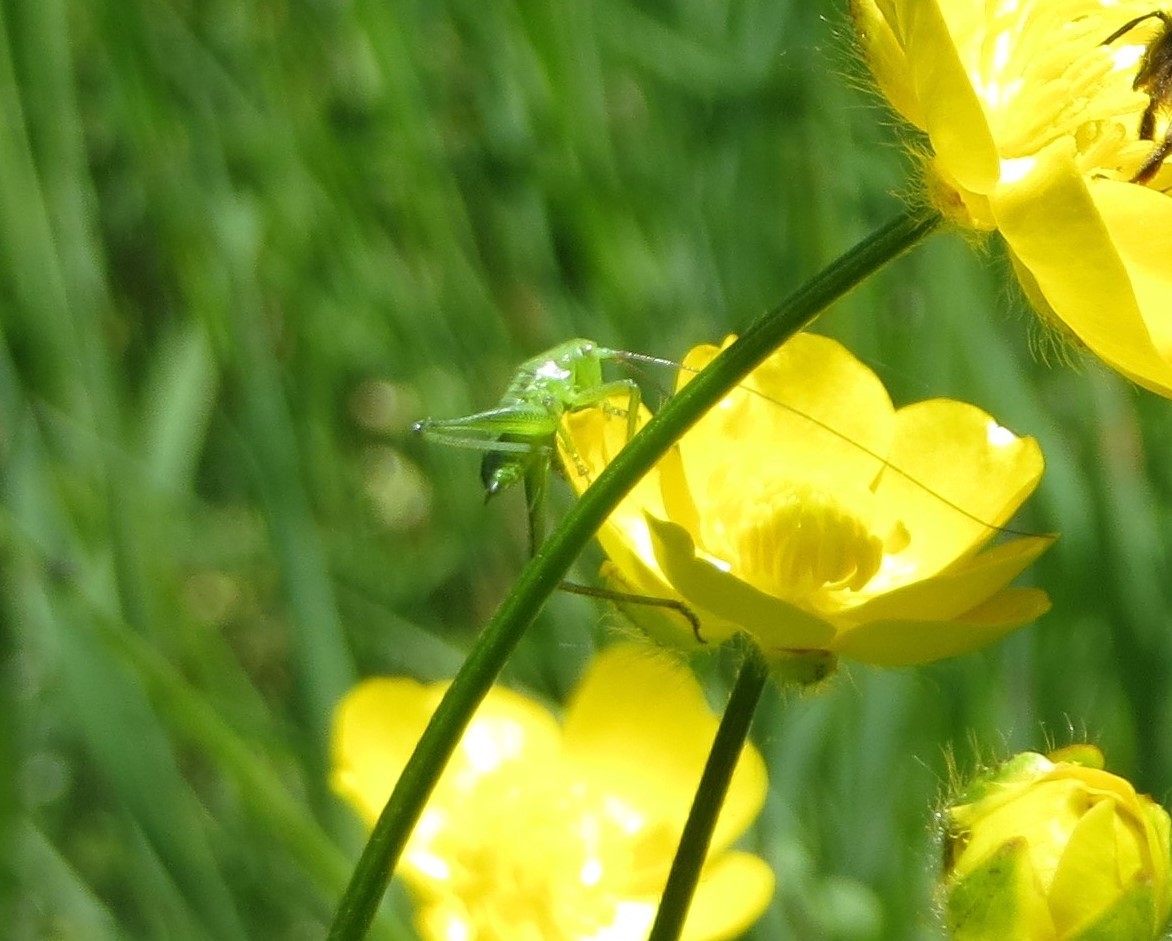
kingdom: Animalia
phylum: Arthropoda
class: Insecta
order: Orthoptera
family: Tettigoniidae
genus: Tettigonia
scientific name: Tettigonia viridissima
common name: Great green bush-cricket
